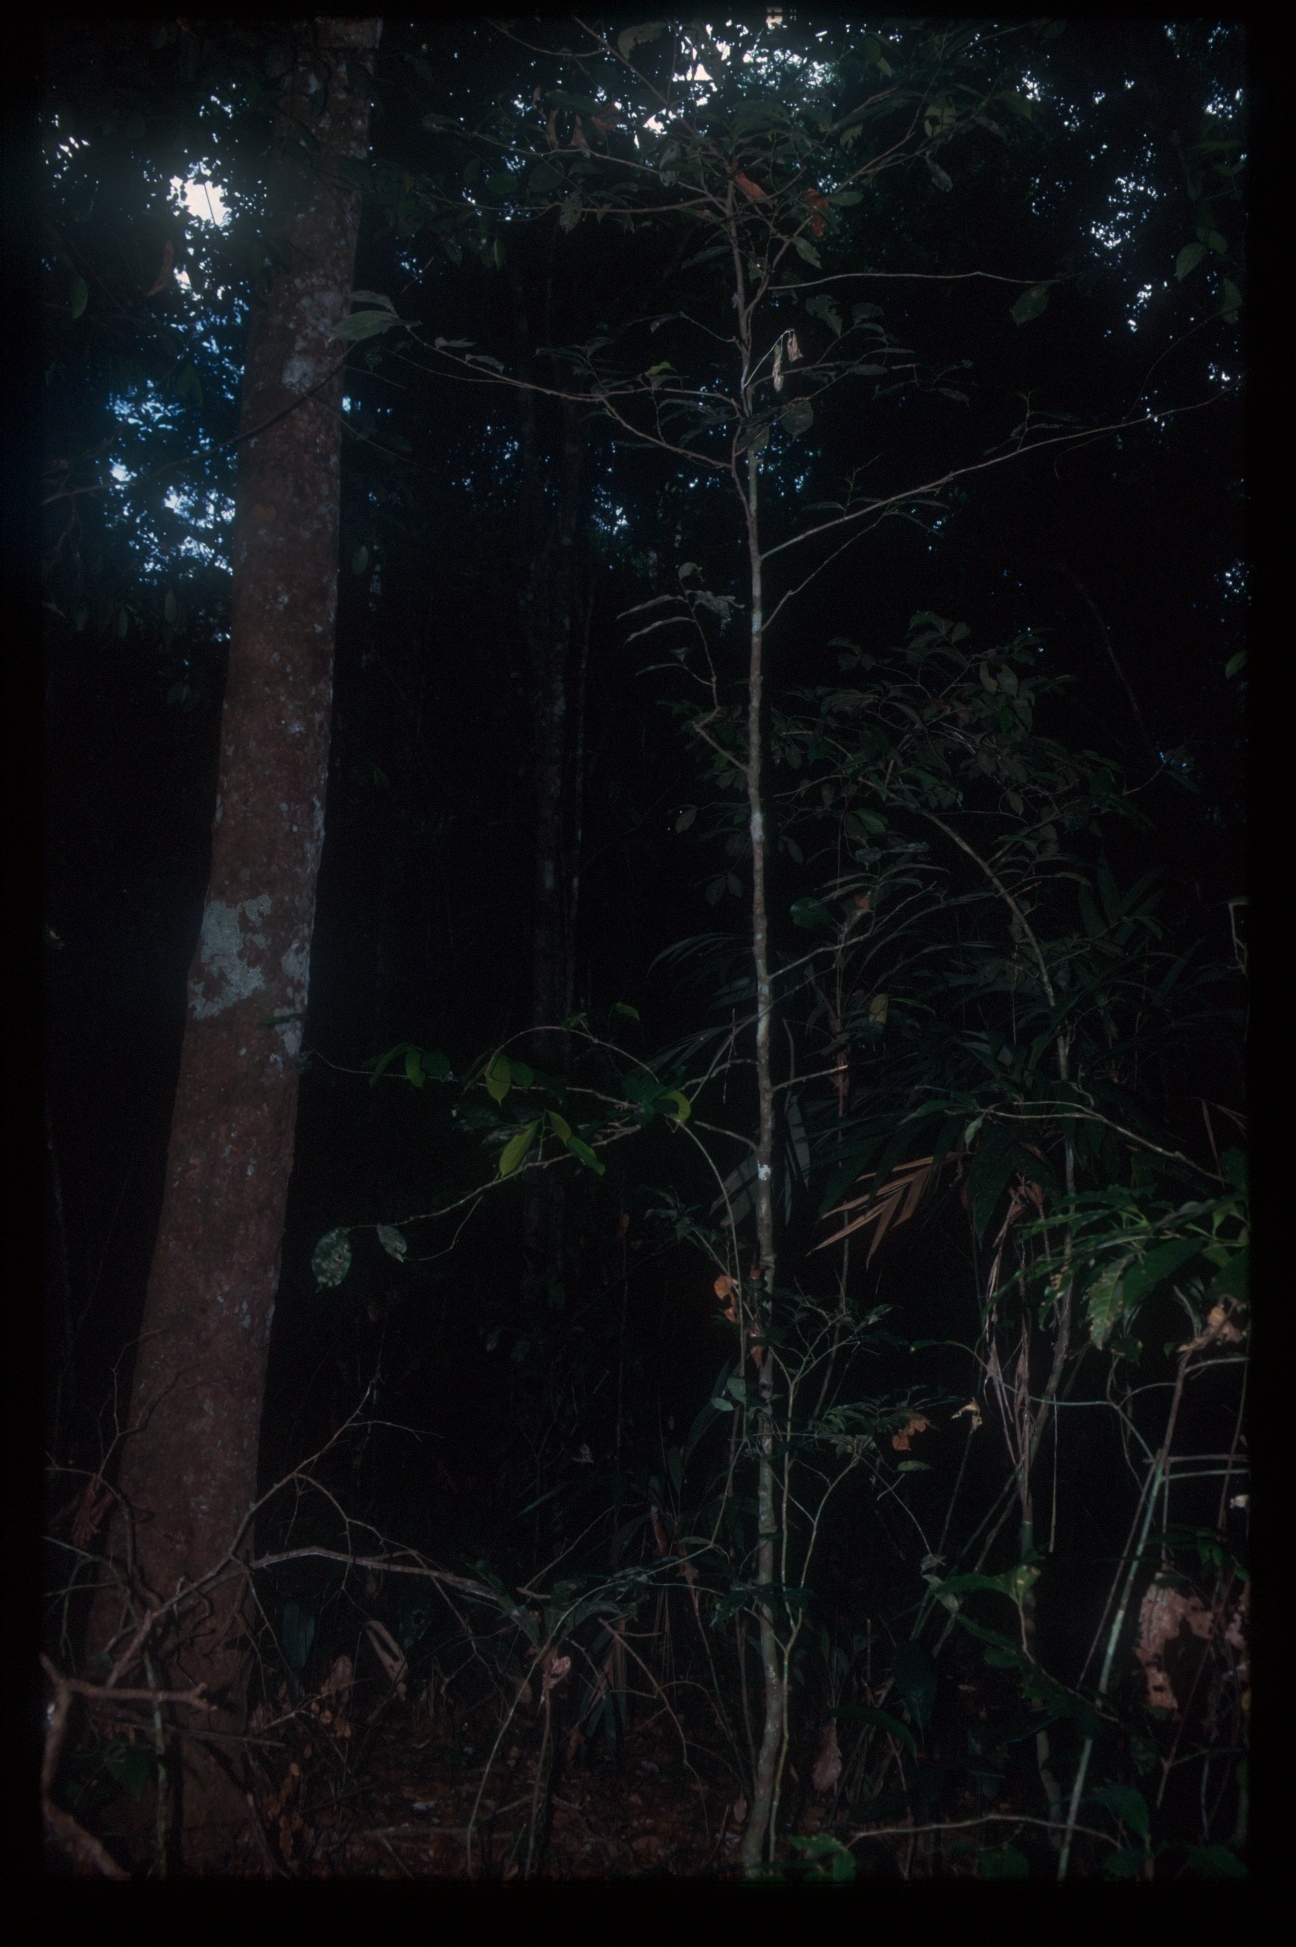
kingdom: Plantae
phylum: Tracheophyta
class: Magnoliopsida
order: Magnoliales
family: Annonaceae
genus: Cremastosperma
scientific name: Cremastosperma monospermum
